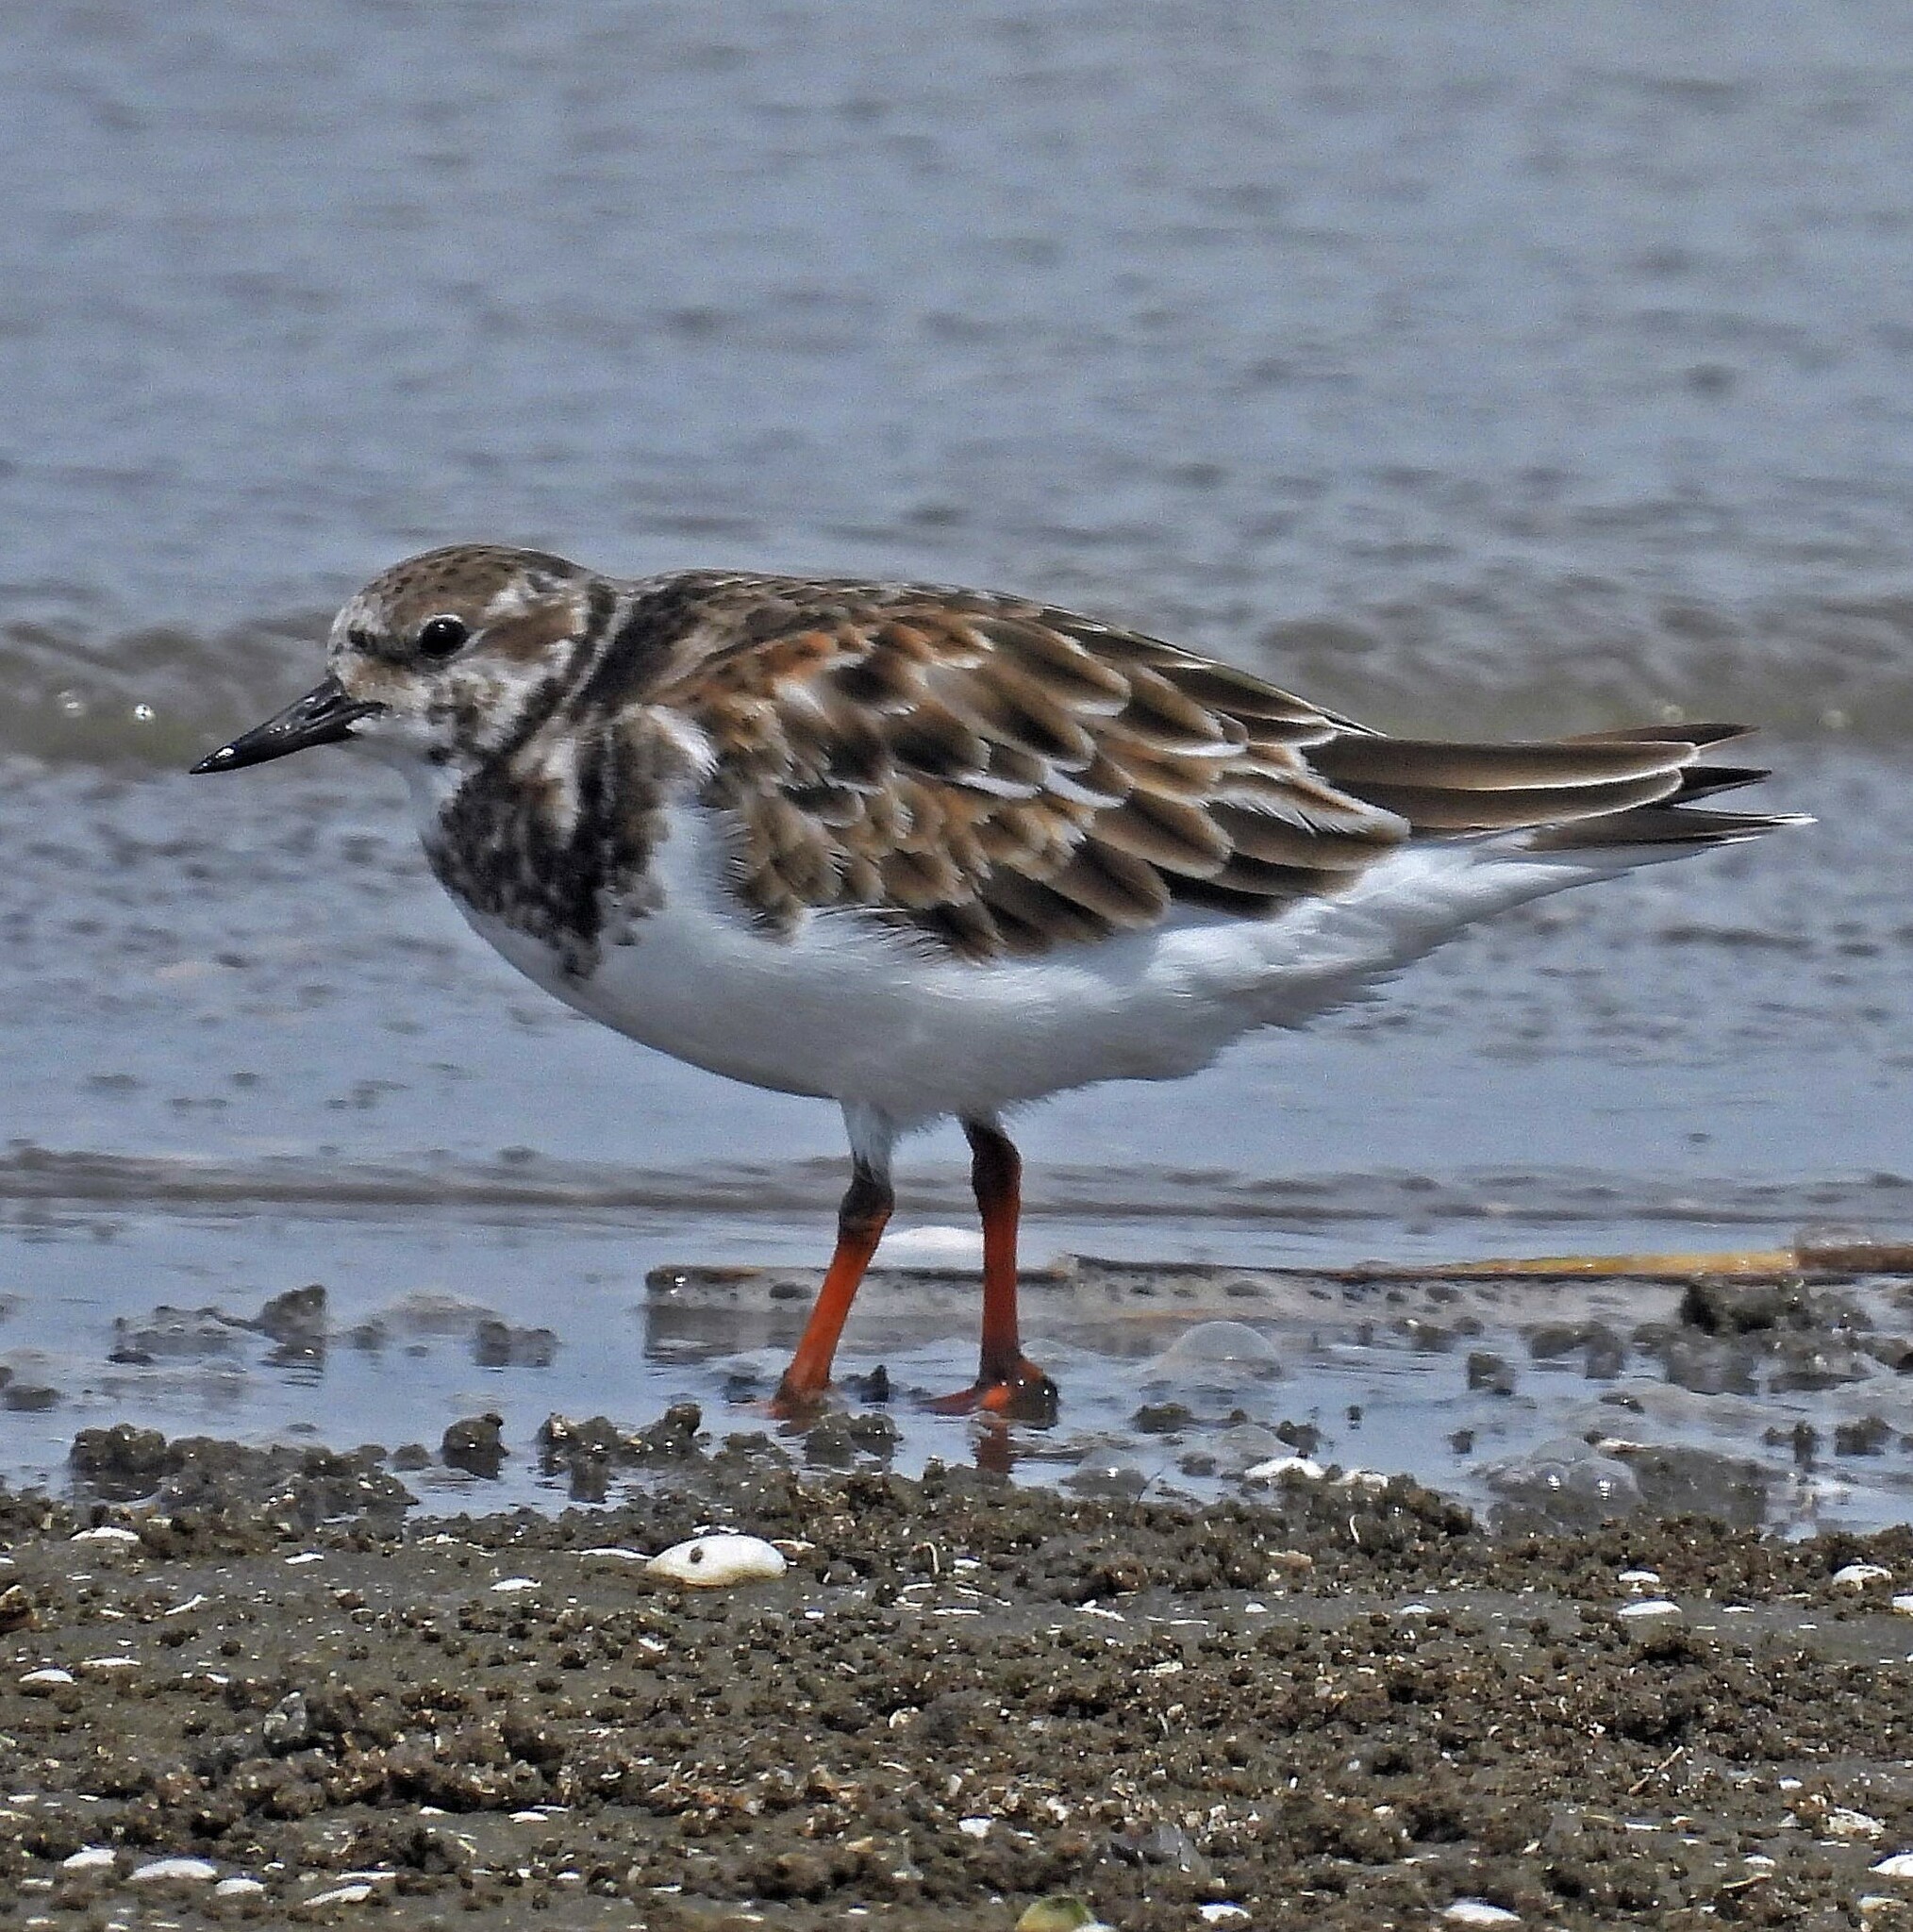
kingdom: Animalia
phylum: Chordata
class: Aves
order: Charadriiformes
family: Scolopacidae
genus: Arenaria
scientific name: Arenaria interpres
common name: Ruddy turnstone
